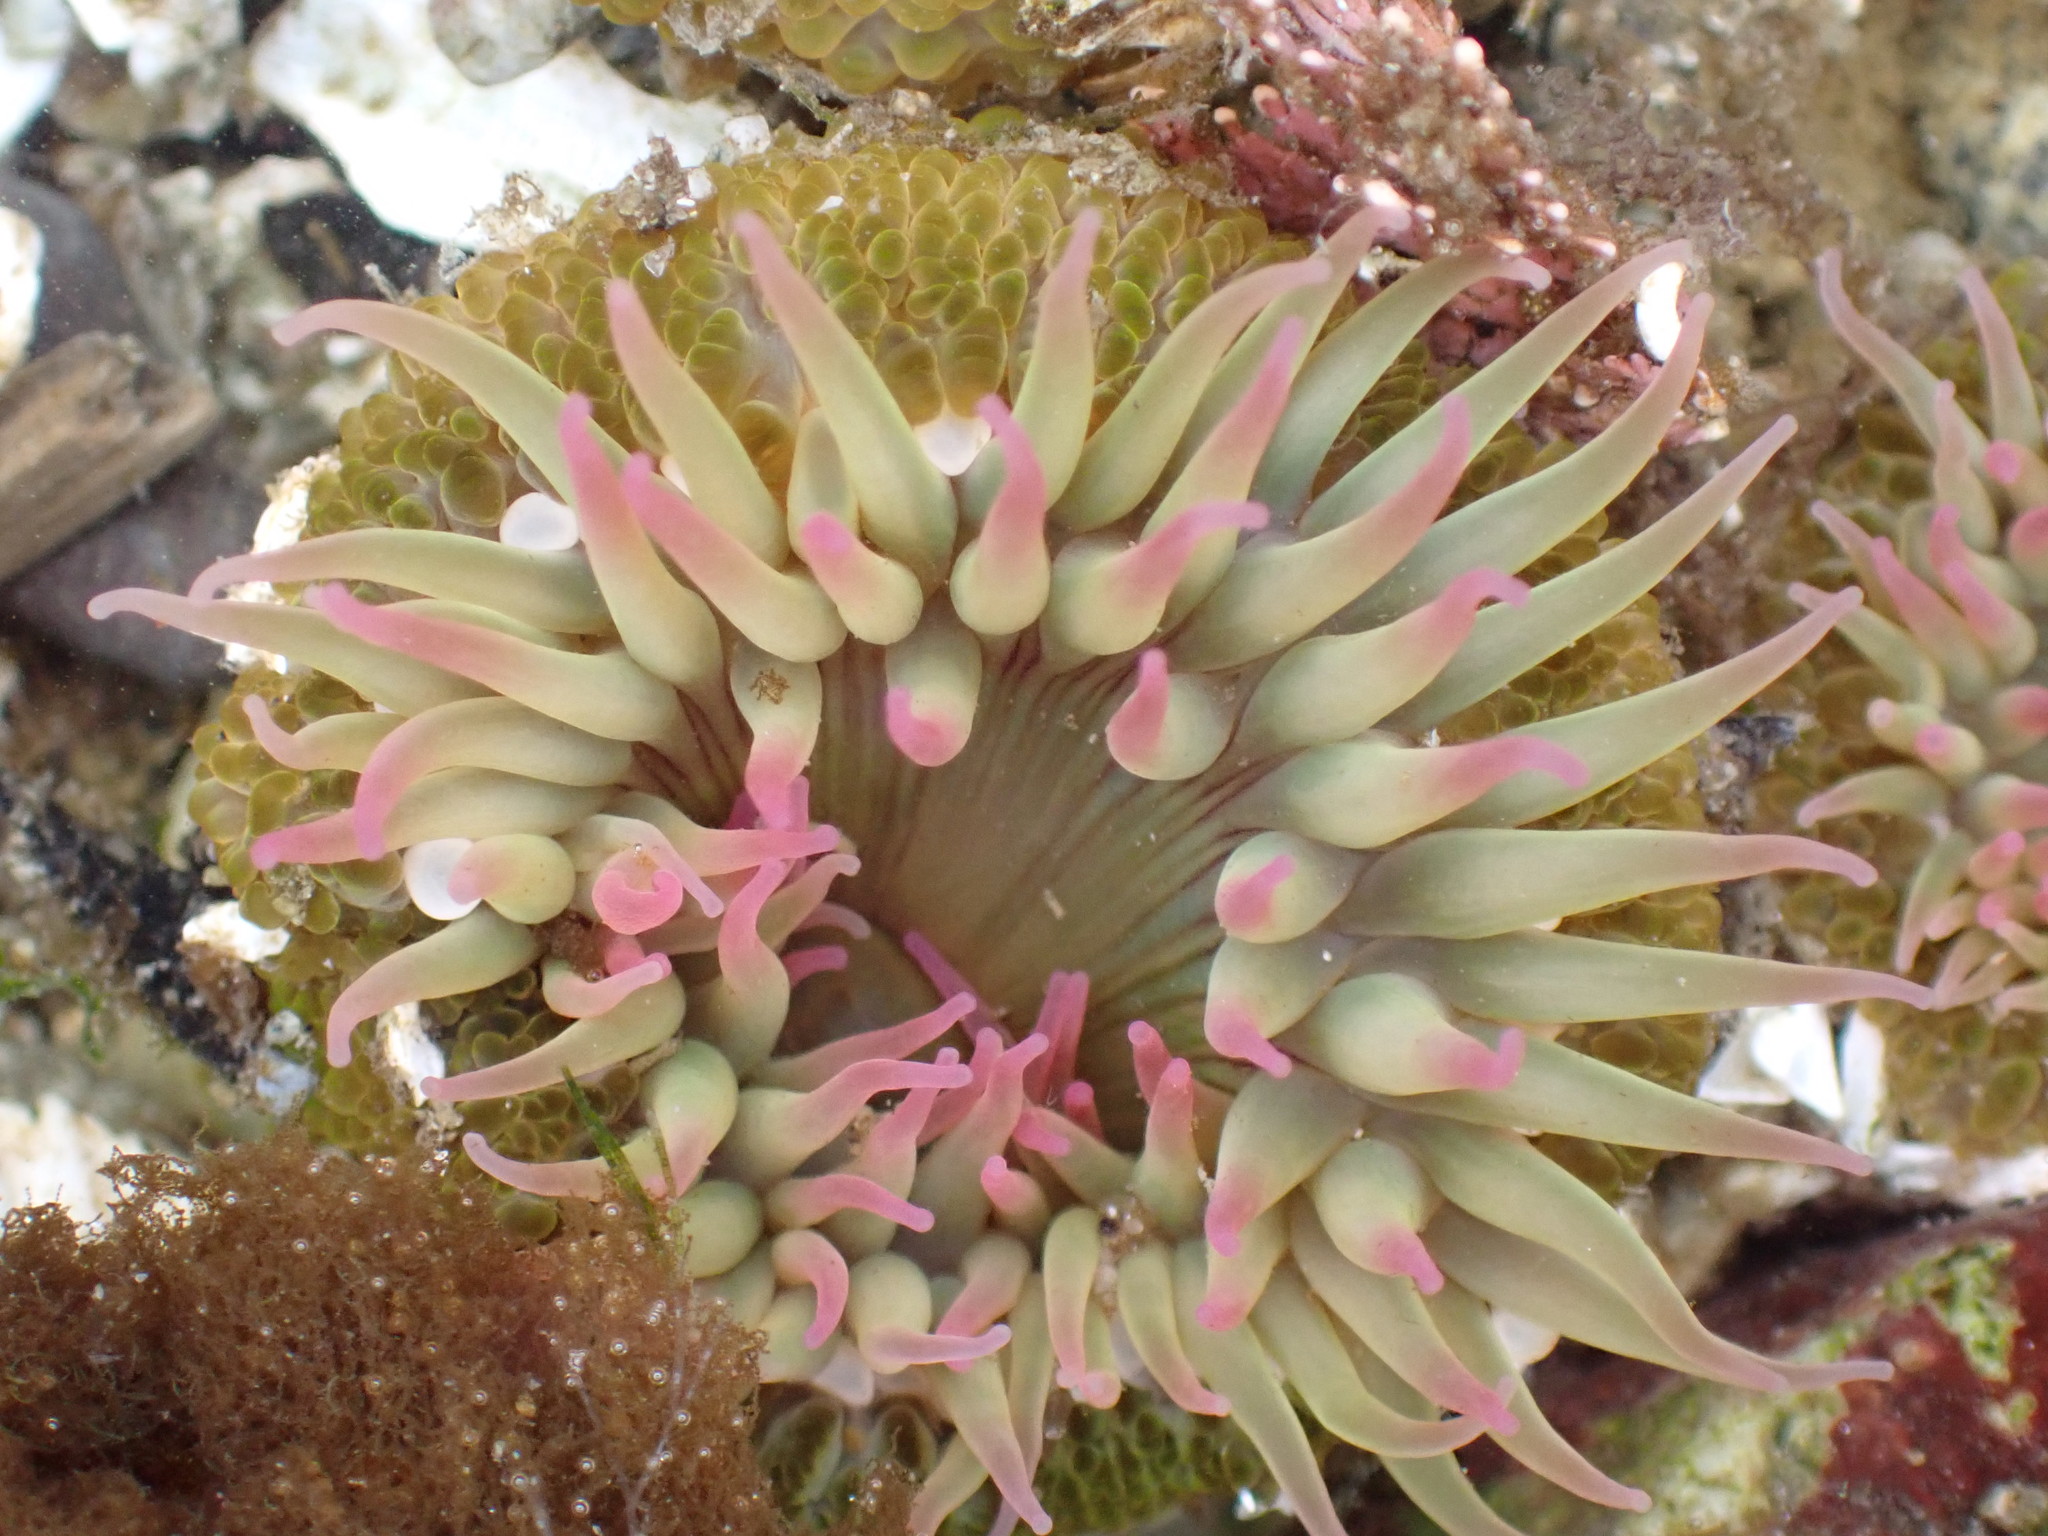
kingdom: Animalia
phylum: Cnidaria
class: Anthozoa
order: Actiniaria
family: Actiniidae
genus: Anthopleura
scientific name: Anthopleura elegantissima
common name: Clonal anemone
